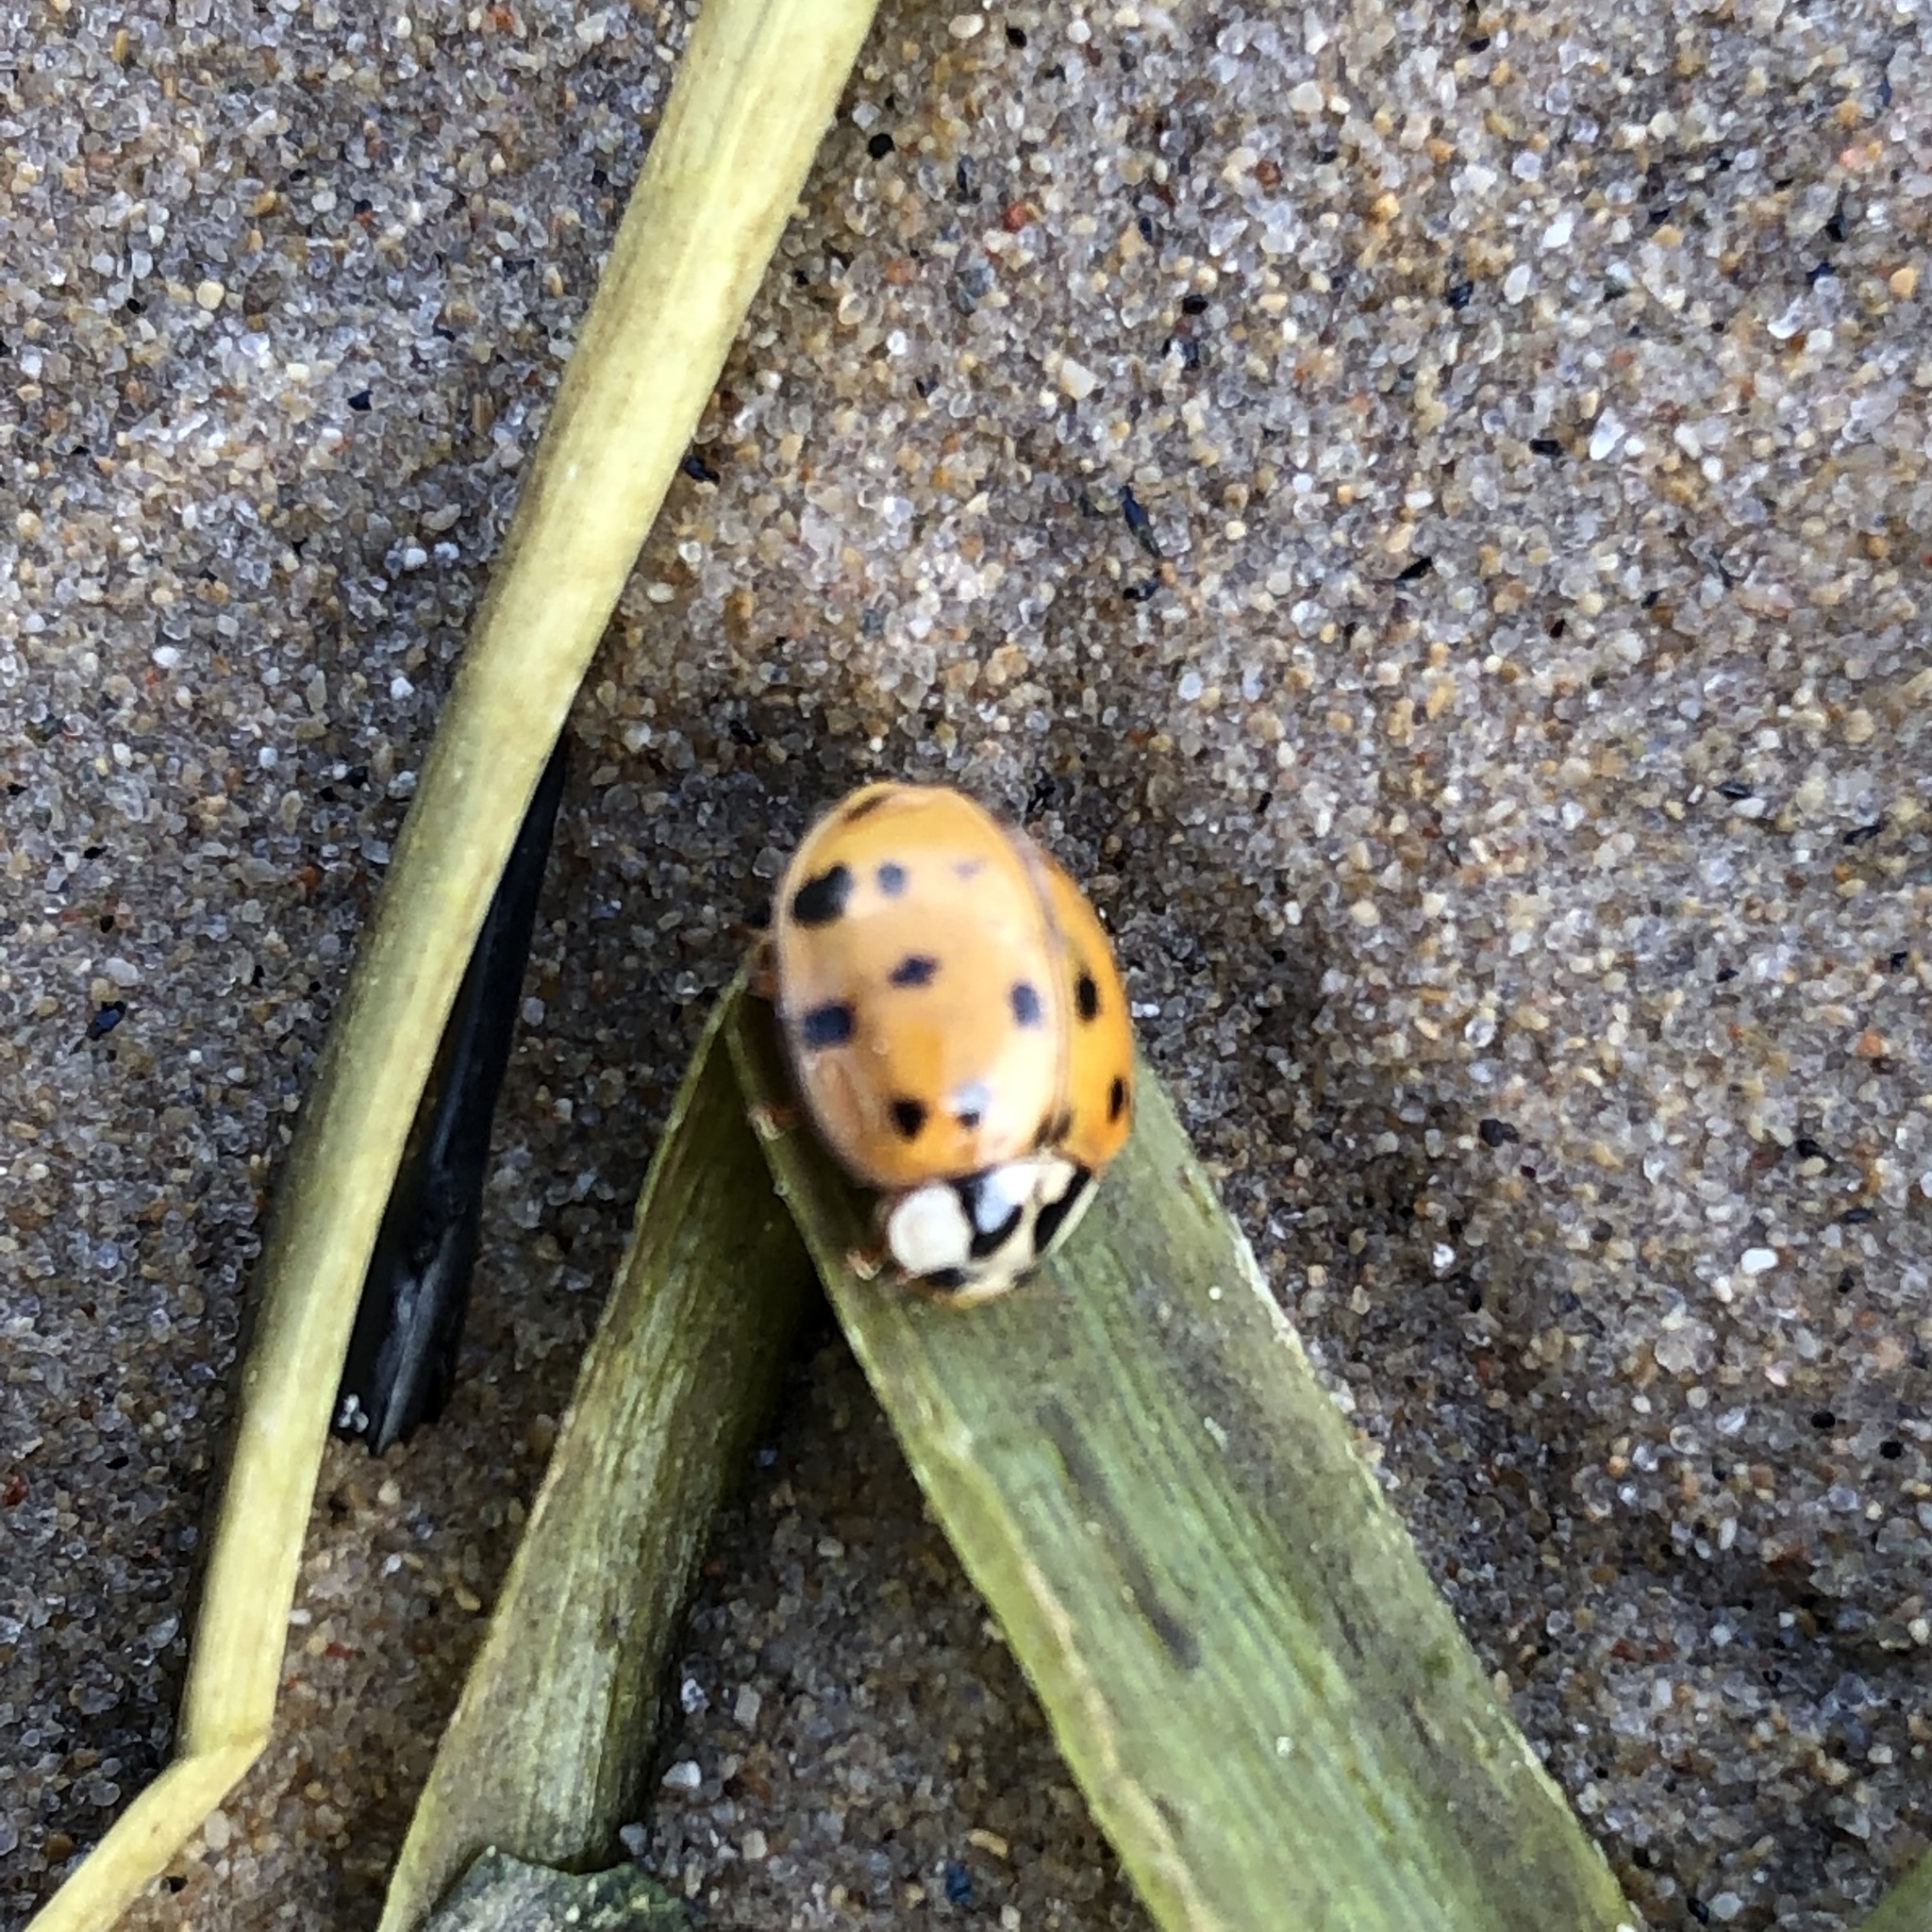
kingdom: Animalia
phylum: Arthropoda
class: Insecta
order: Coleoptera
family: Coccinellidae
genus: Harmonia
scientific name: Harmonia axyridis
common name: Harlequin ladybird
